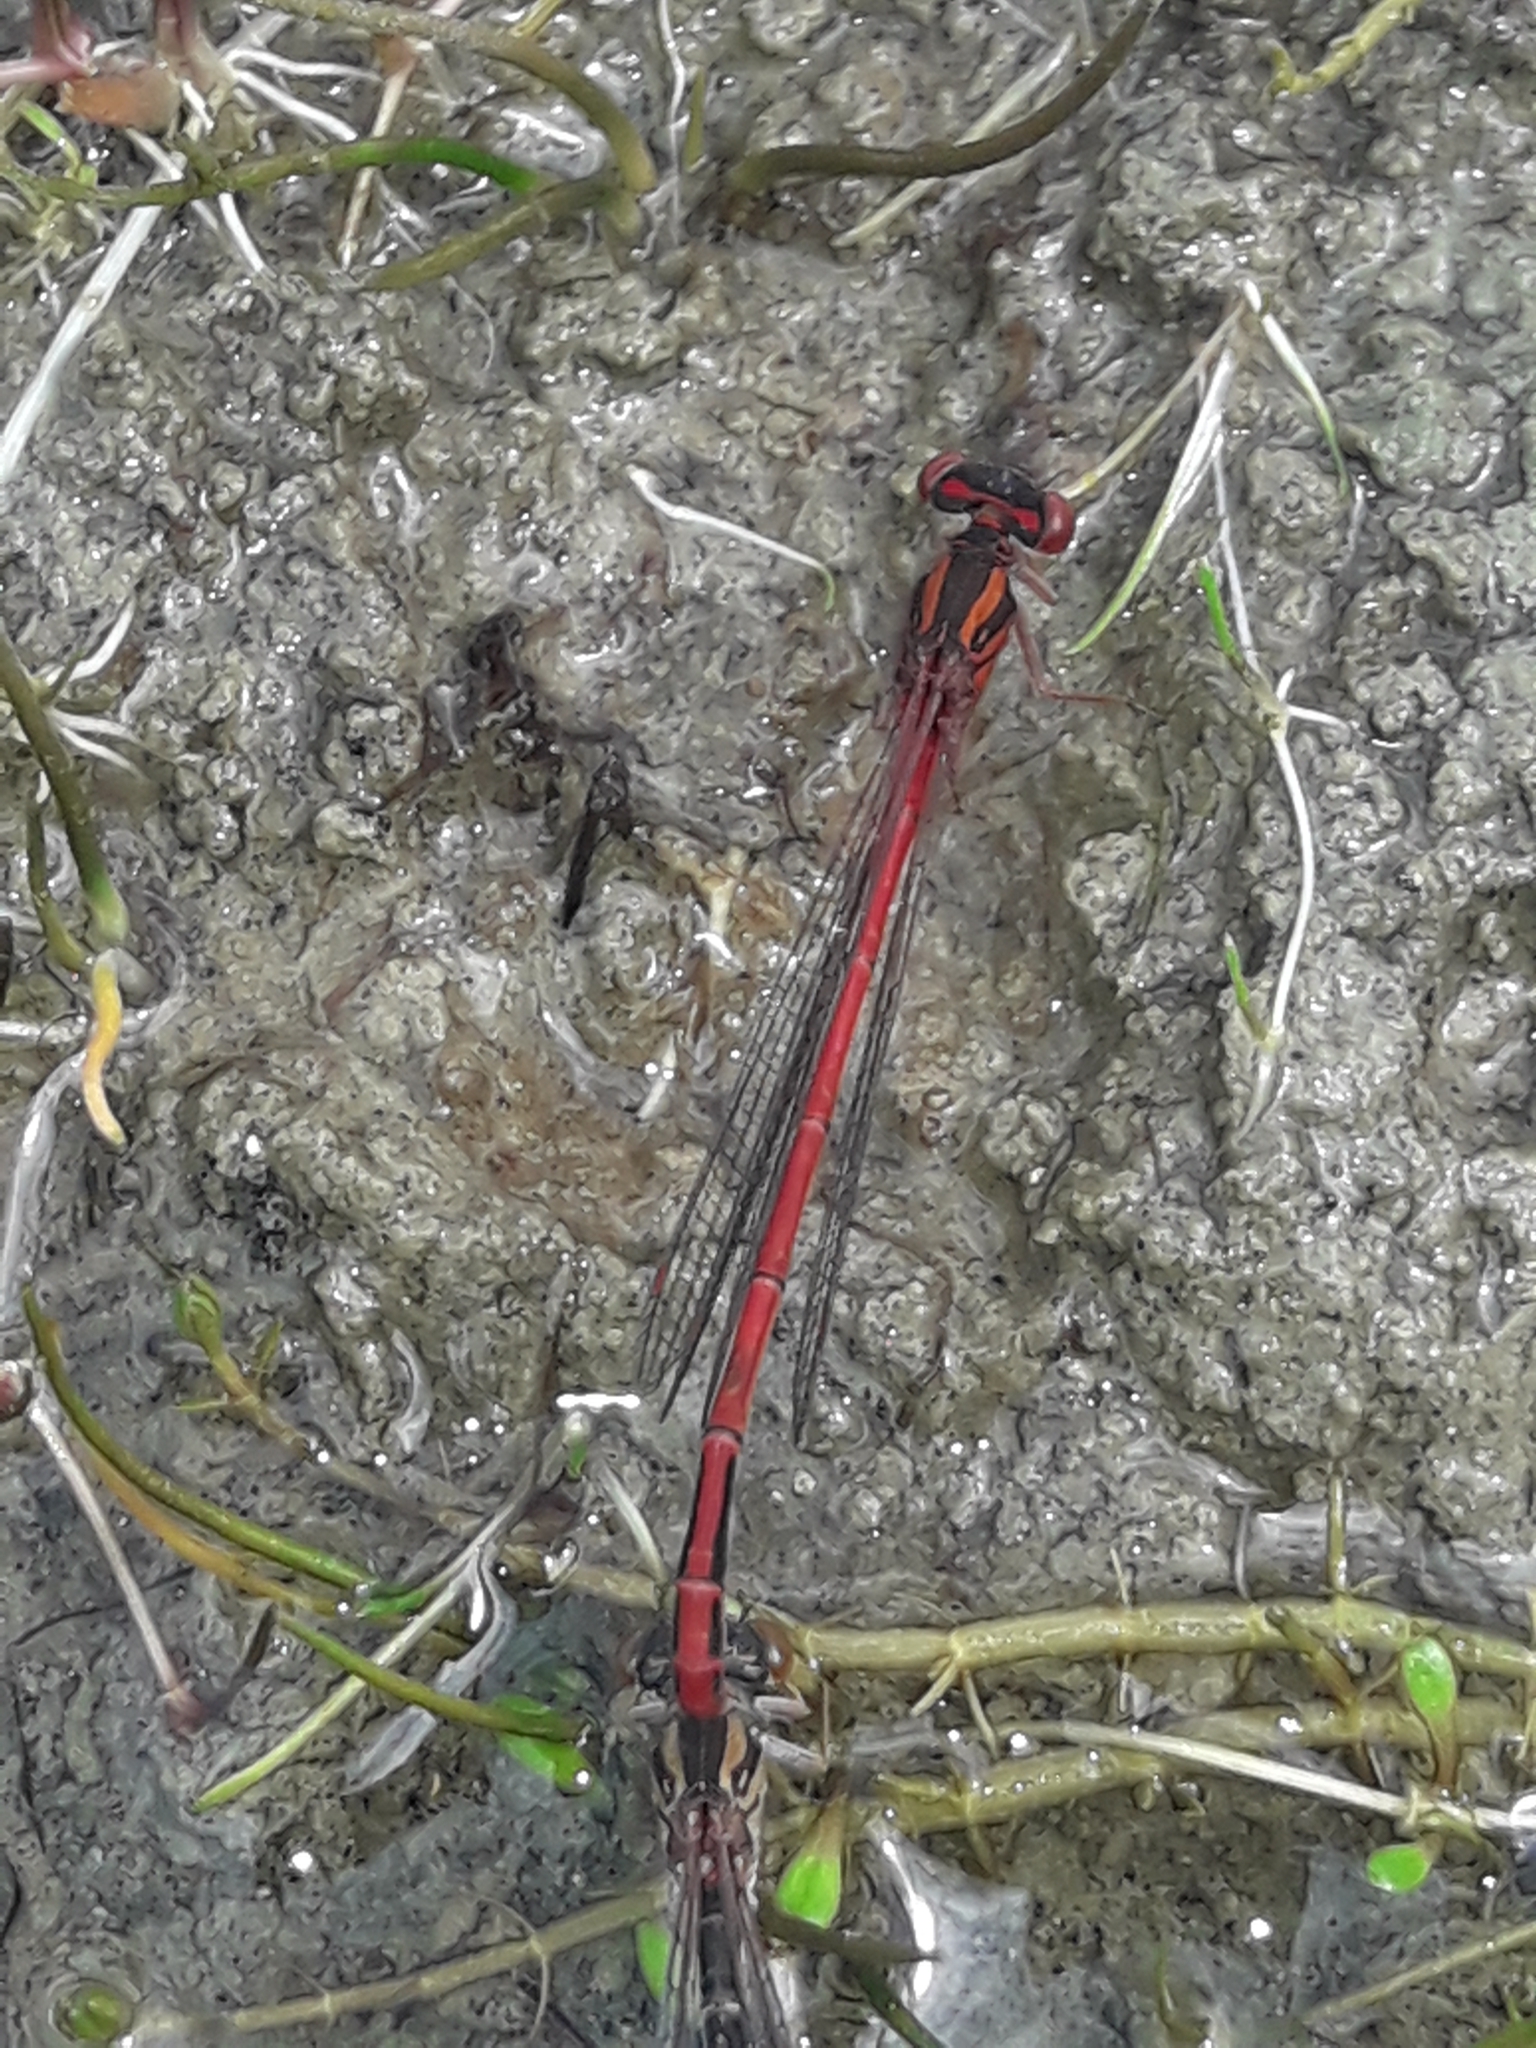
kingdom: Animalia
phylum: Arthropoda
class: Insecta
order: Odonata
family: Coenagrionidae
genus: Xanthocnemis
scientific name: Xanthocnemis zealandica
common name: Common redcoat damselfly
